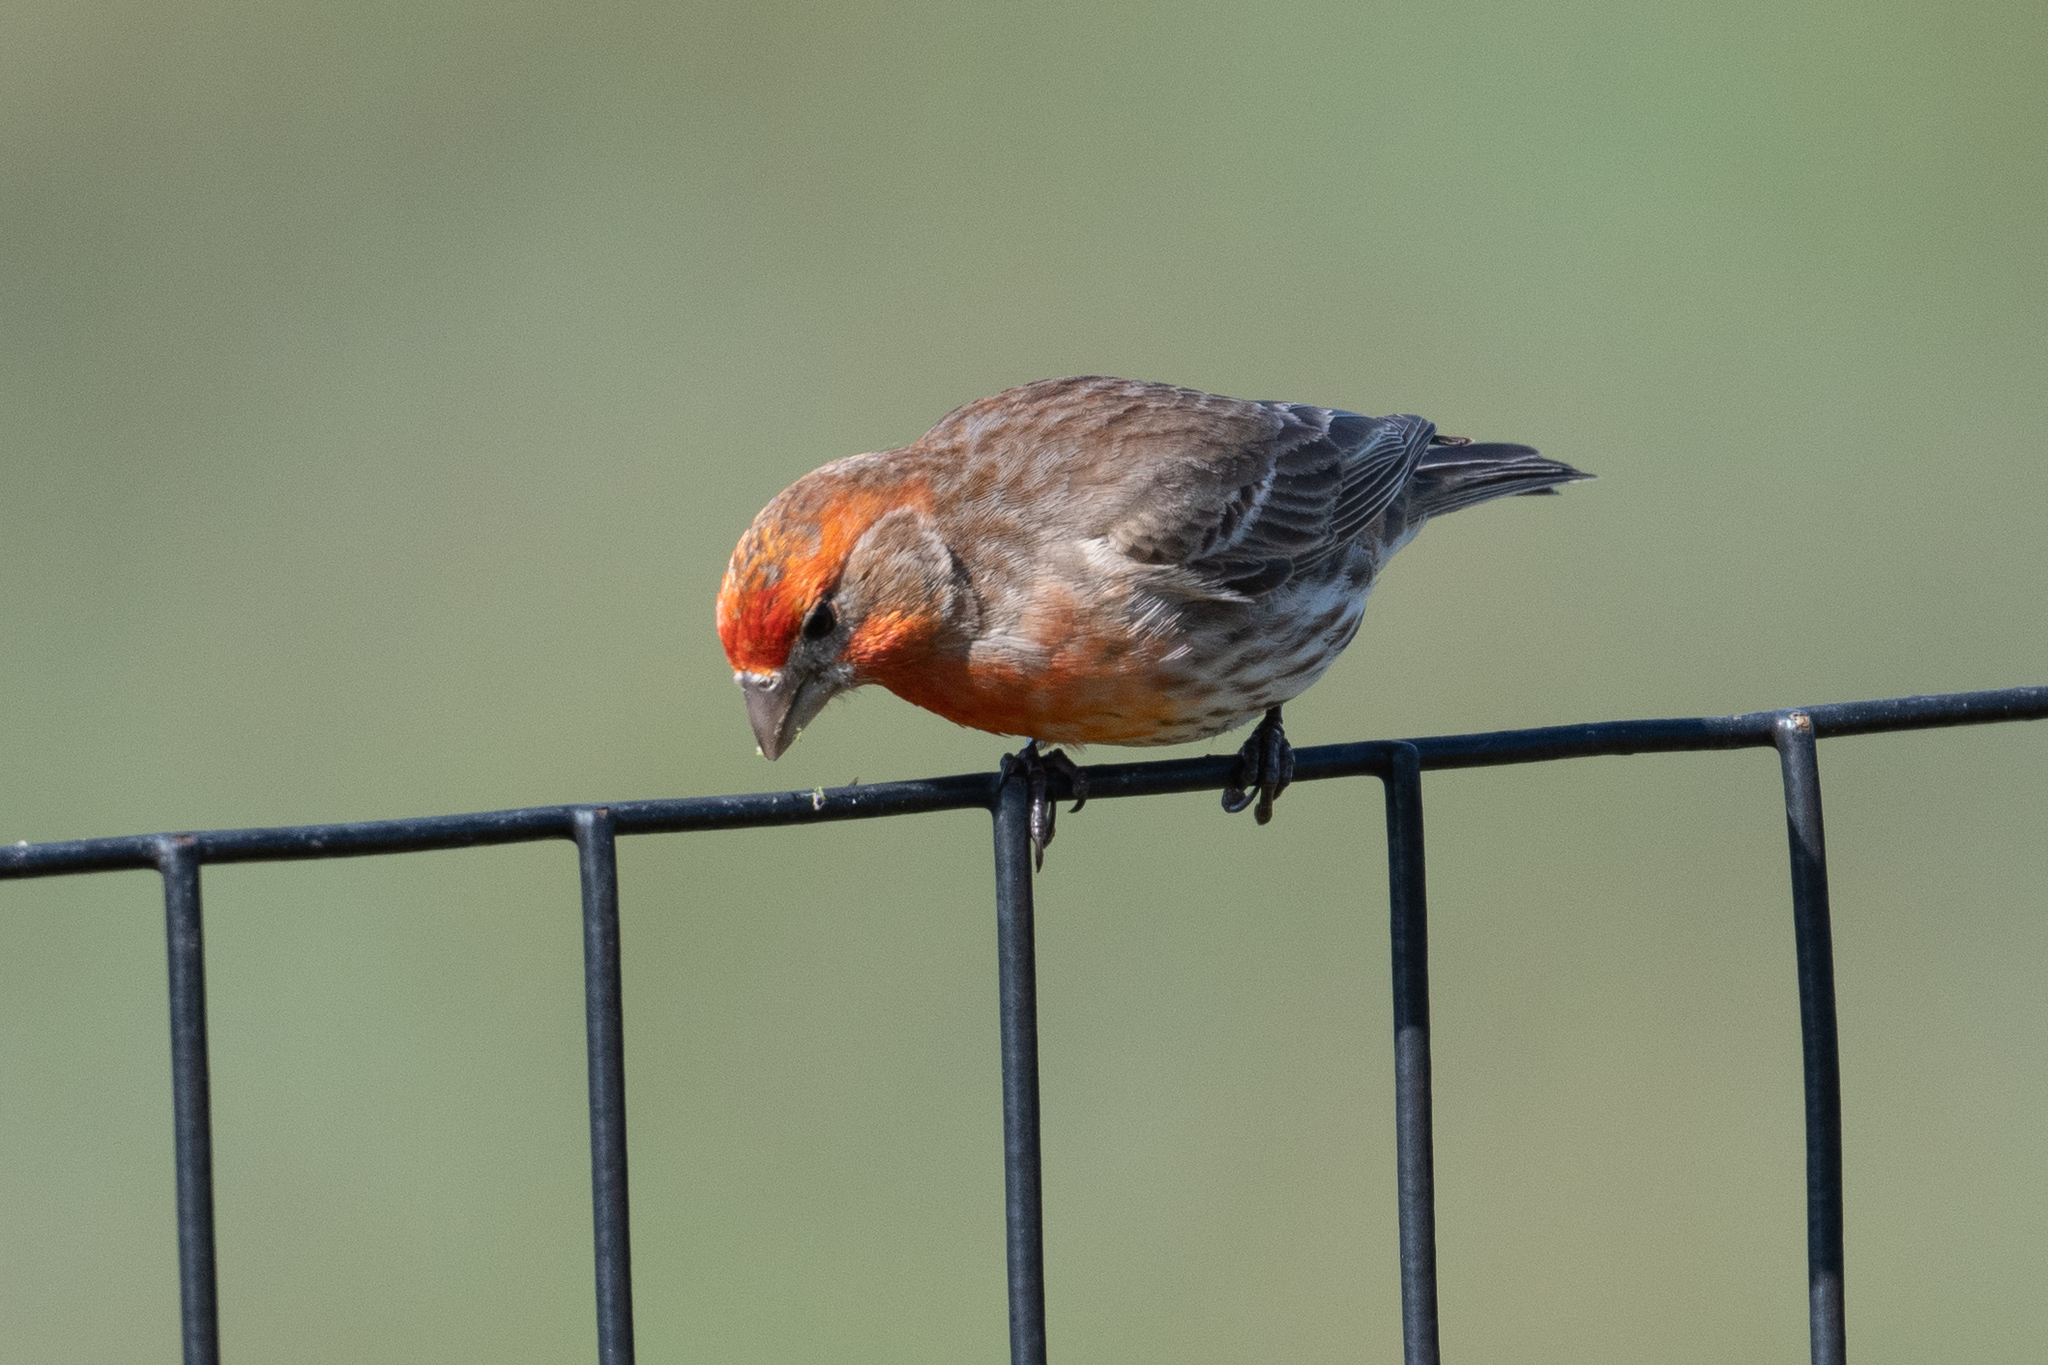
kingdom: Animalia
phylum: Chordata
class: Aves
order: Passeriformes
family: Fringillidae
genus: Haemorhous
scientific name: Haemorhous mexicanus
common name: House finch
